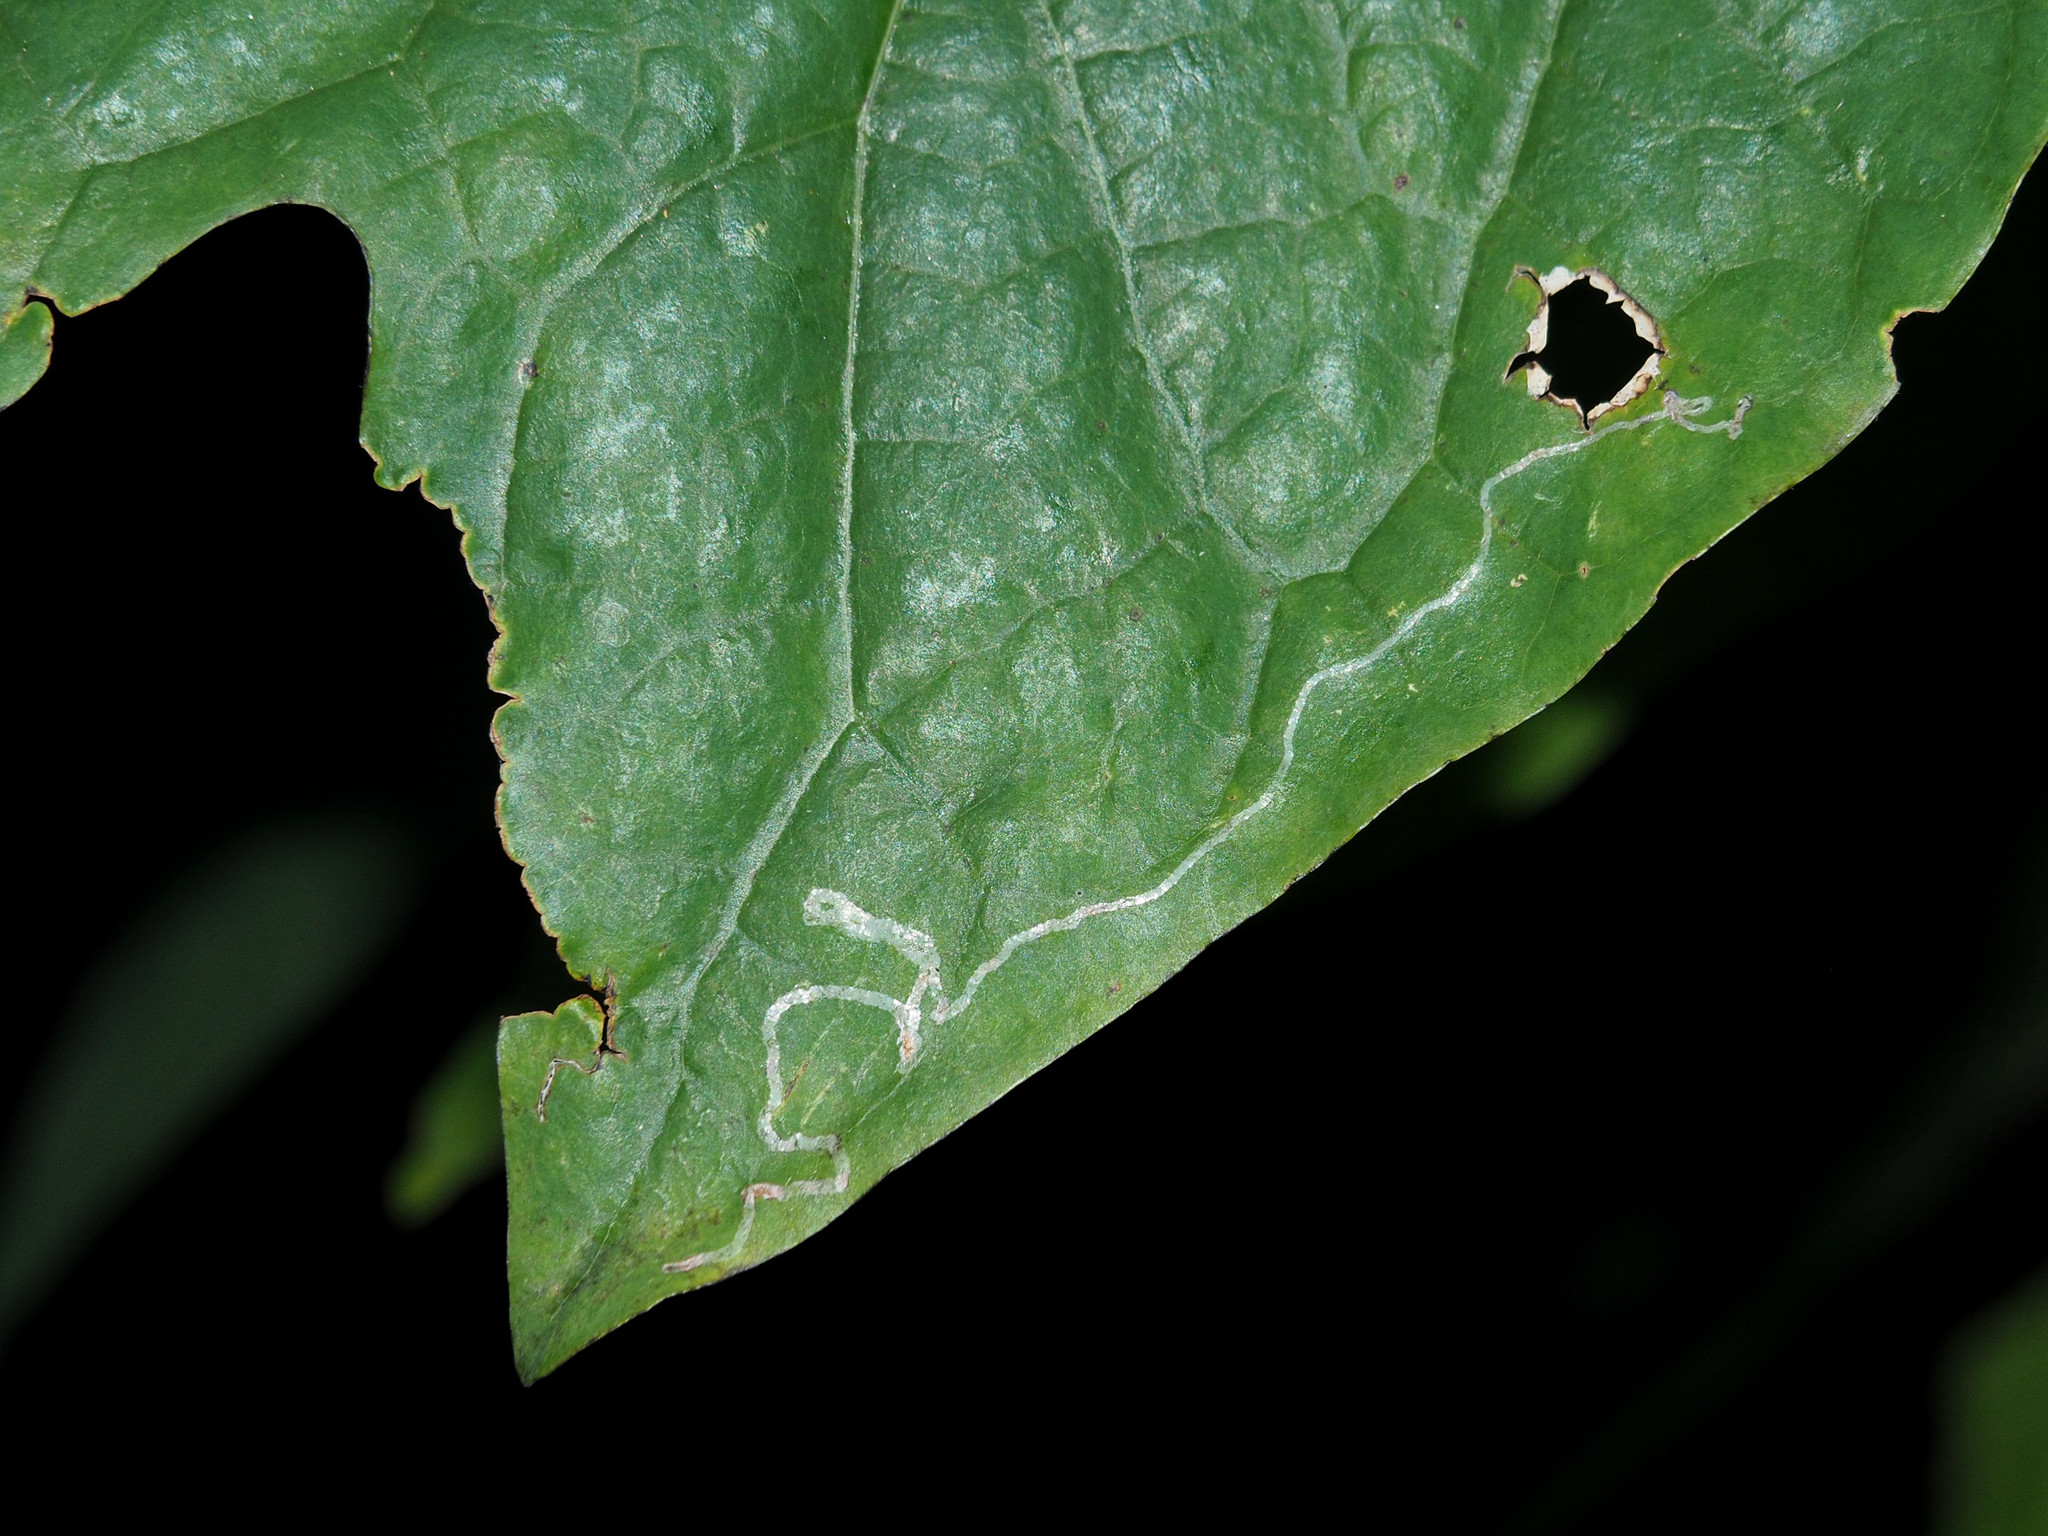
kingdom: Animalia
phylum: Arthropoda
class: Insecta
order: Lepidoptera
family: Gracillariidae
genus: Phyllocnistis
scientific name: Phyllocnistis liriodendronella
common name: Tulip tree leaf miner
